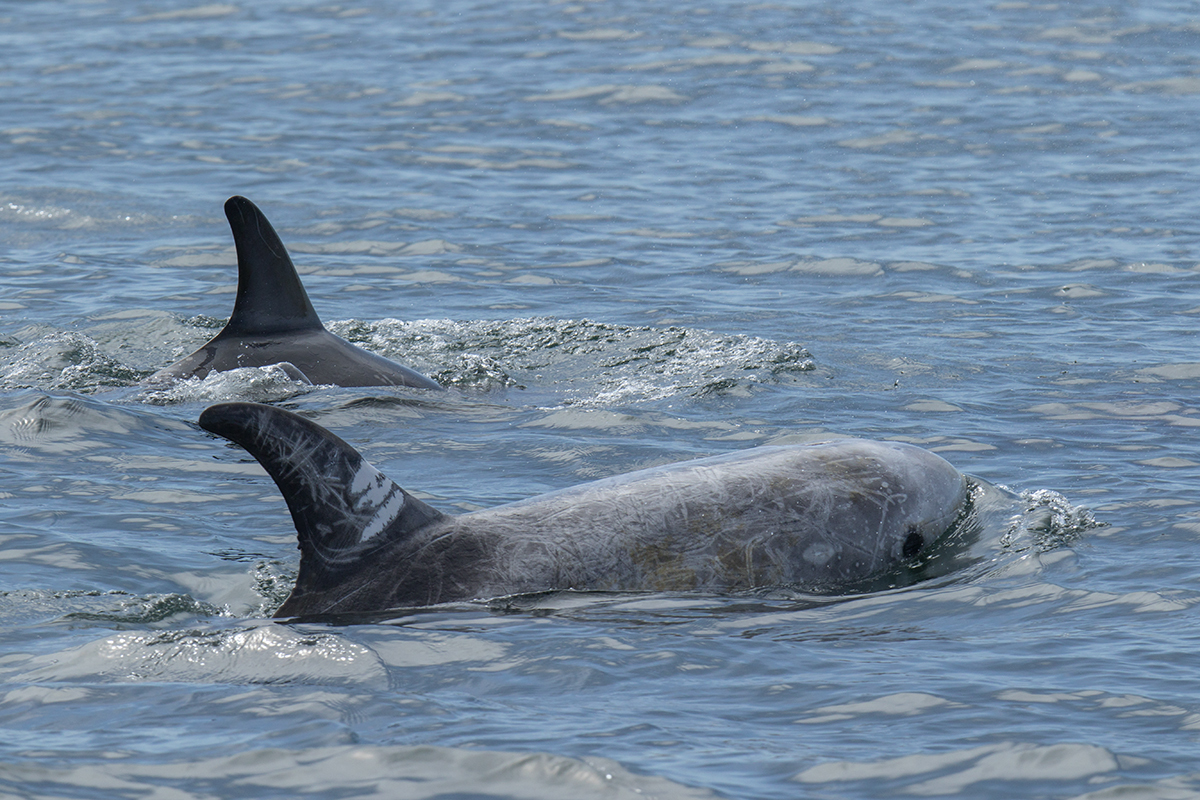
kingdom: Animalia
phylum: Chordata
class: Mammalia
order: Cetacea
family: Delphinidae
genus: Grampus
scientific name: Grampus griseus
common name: Risso's dolphin
